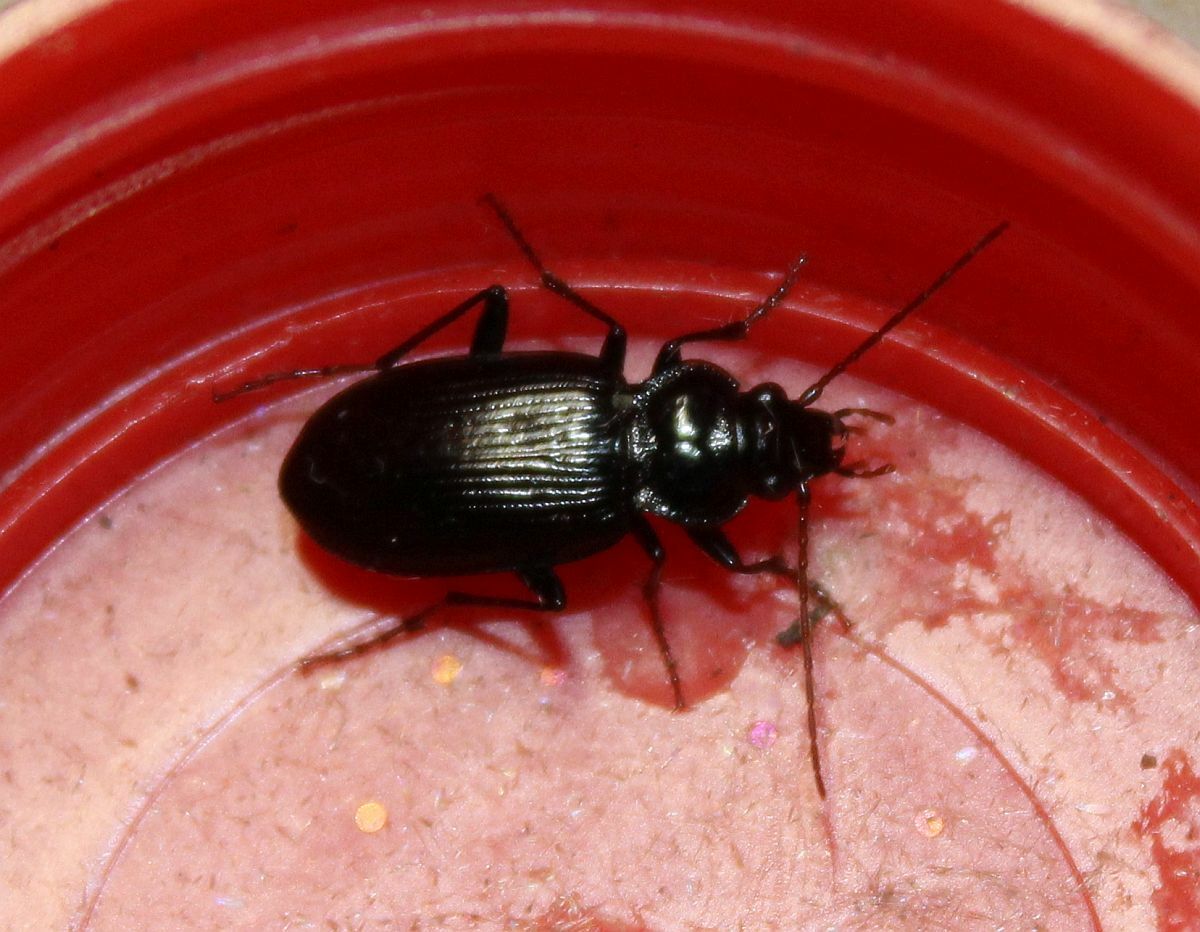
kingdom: Animalia
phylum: Arthropoda
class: Insecta
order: Coleoptera
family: Carabidae
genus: Nebria
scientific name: Nebria brevicollis
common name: Short-necked gazelle beetle
